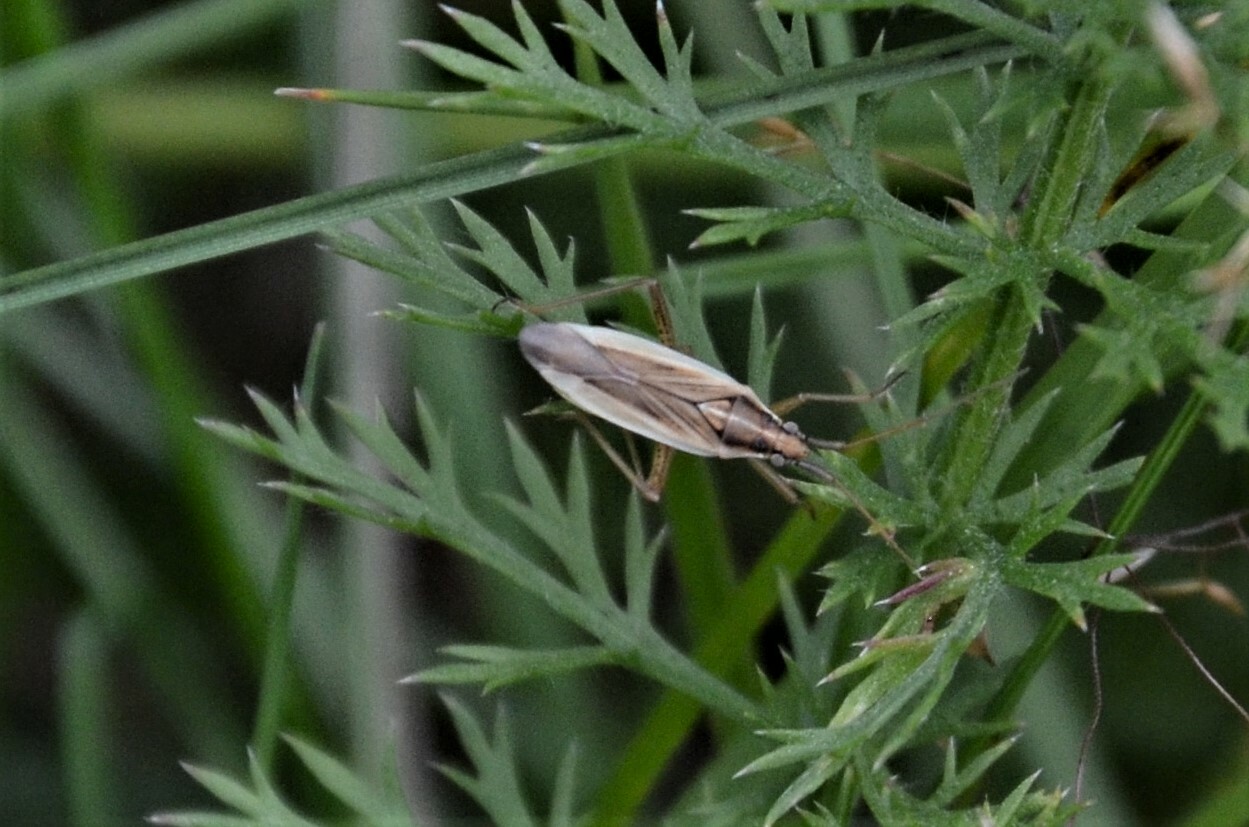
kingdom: Animalia
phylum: Arthropoda
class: Insecta
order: Hemiptera
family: Miridae
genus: Stenodema
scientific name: Stenodema holsata
